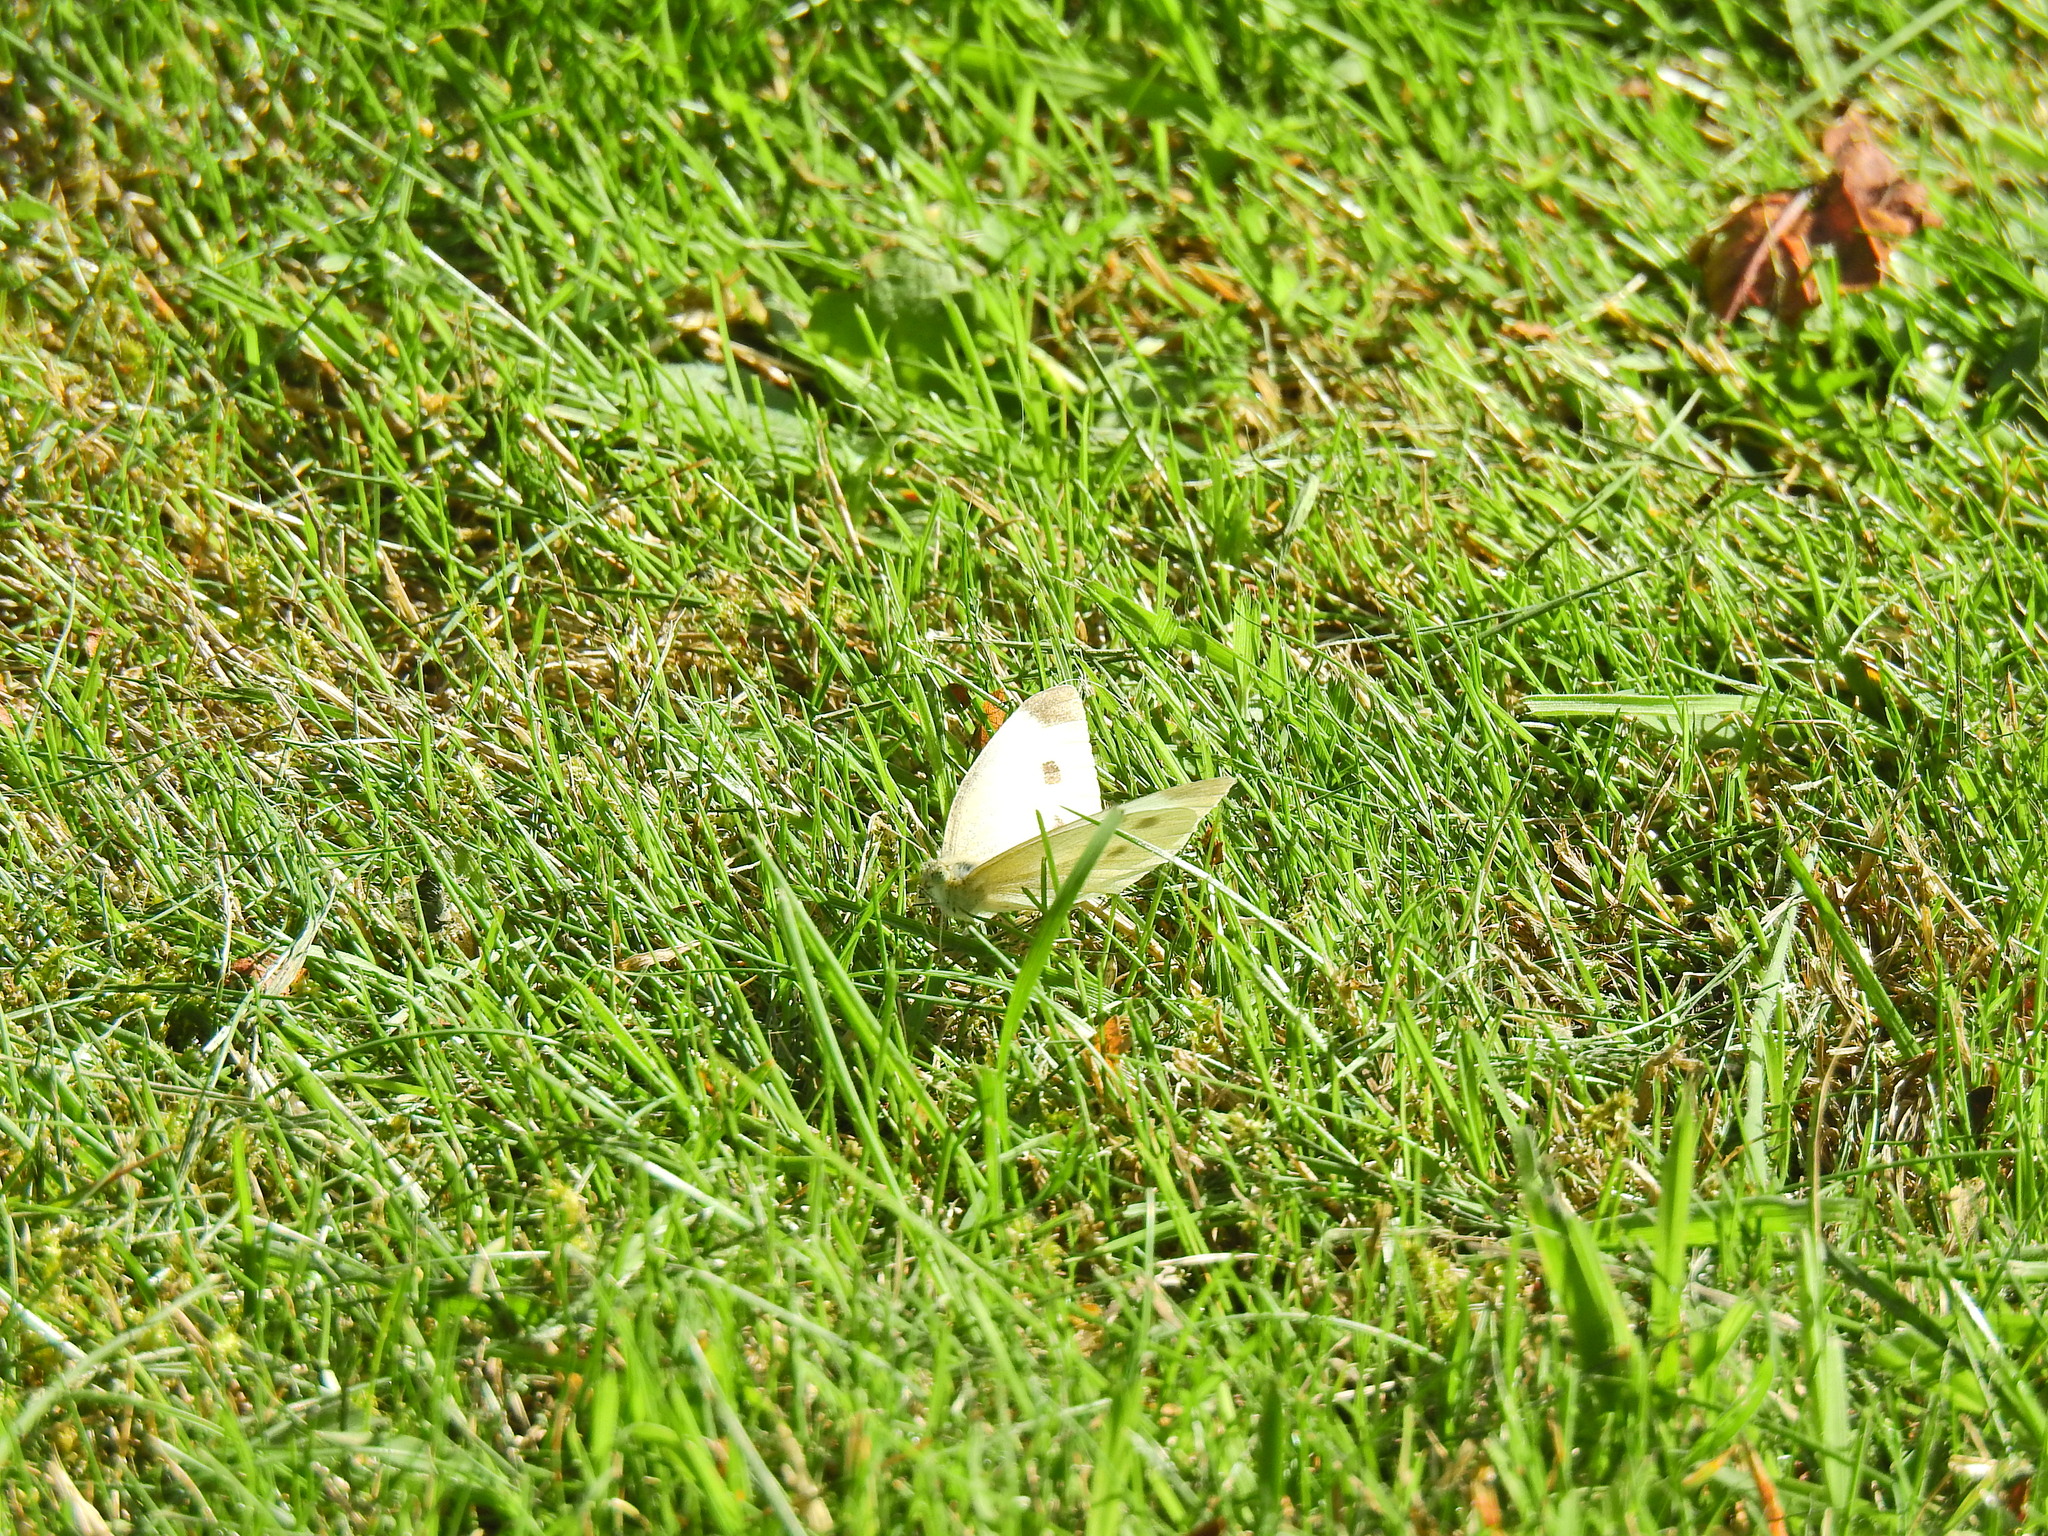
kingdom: Animalia
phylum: Arthropoda
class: Insecta
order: Lepidoptera
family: Pieridae
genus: Pieris
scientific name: Pieris rapae
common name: Small white
